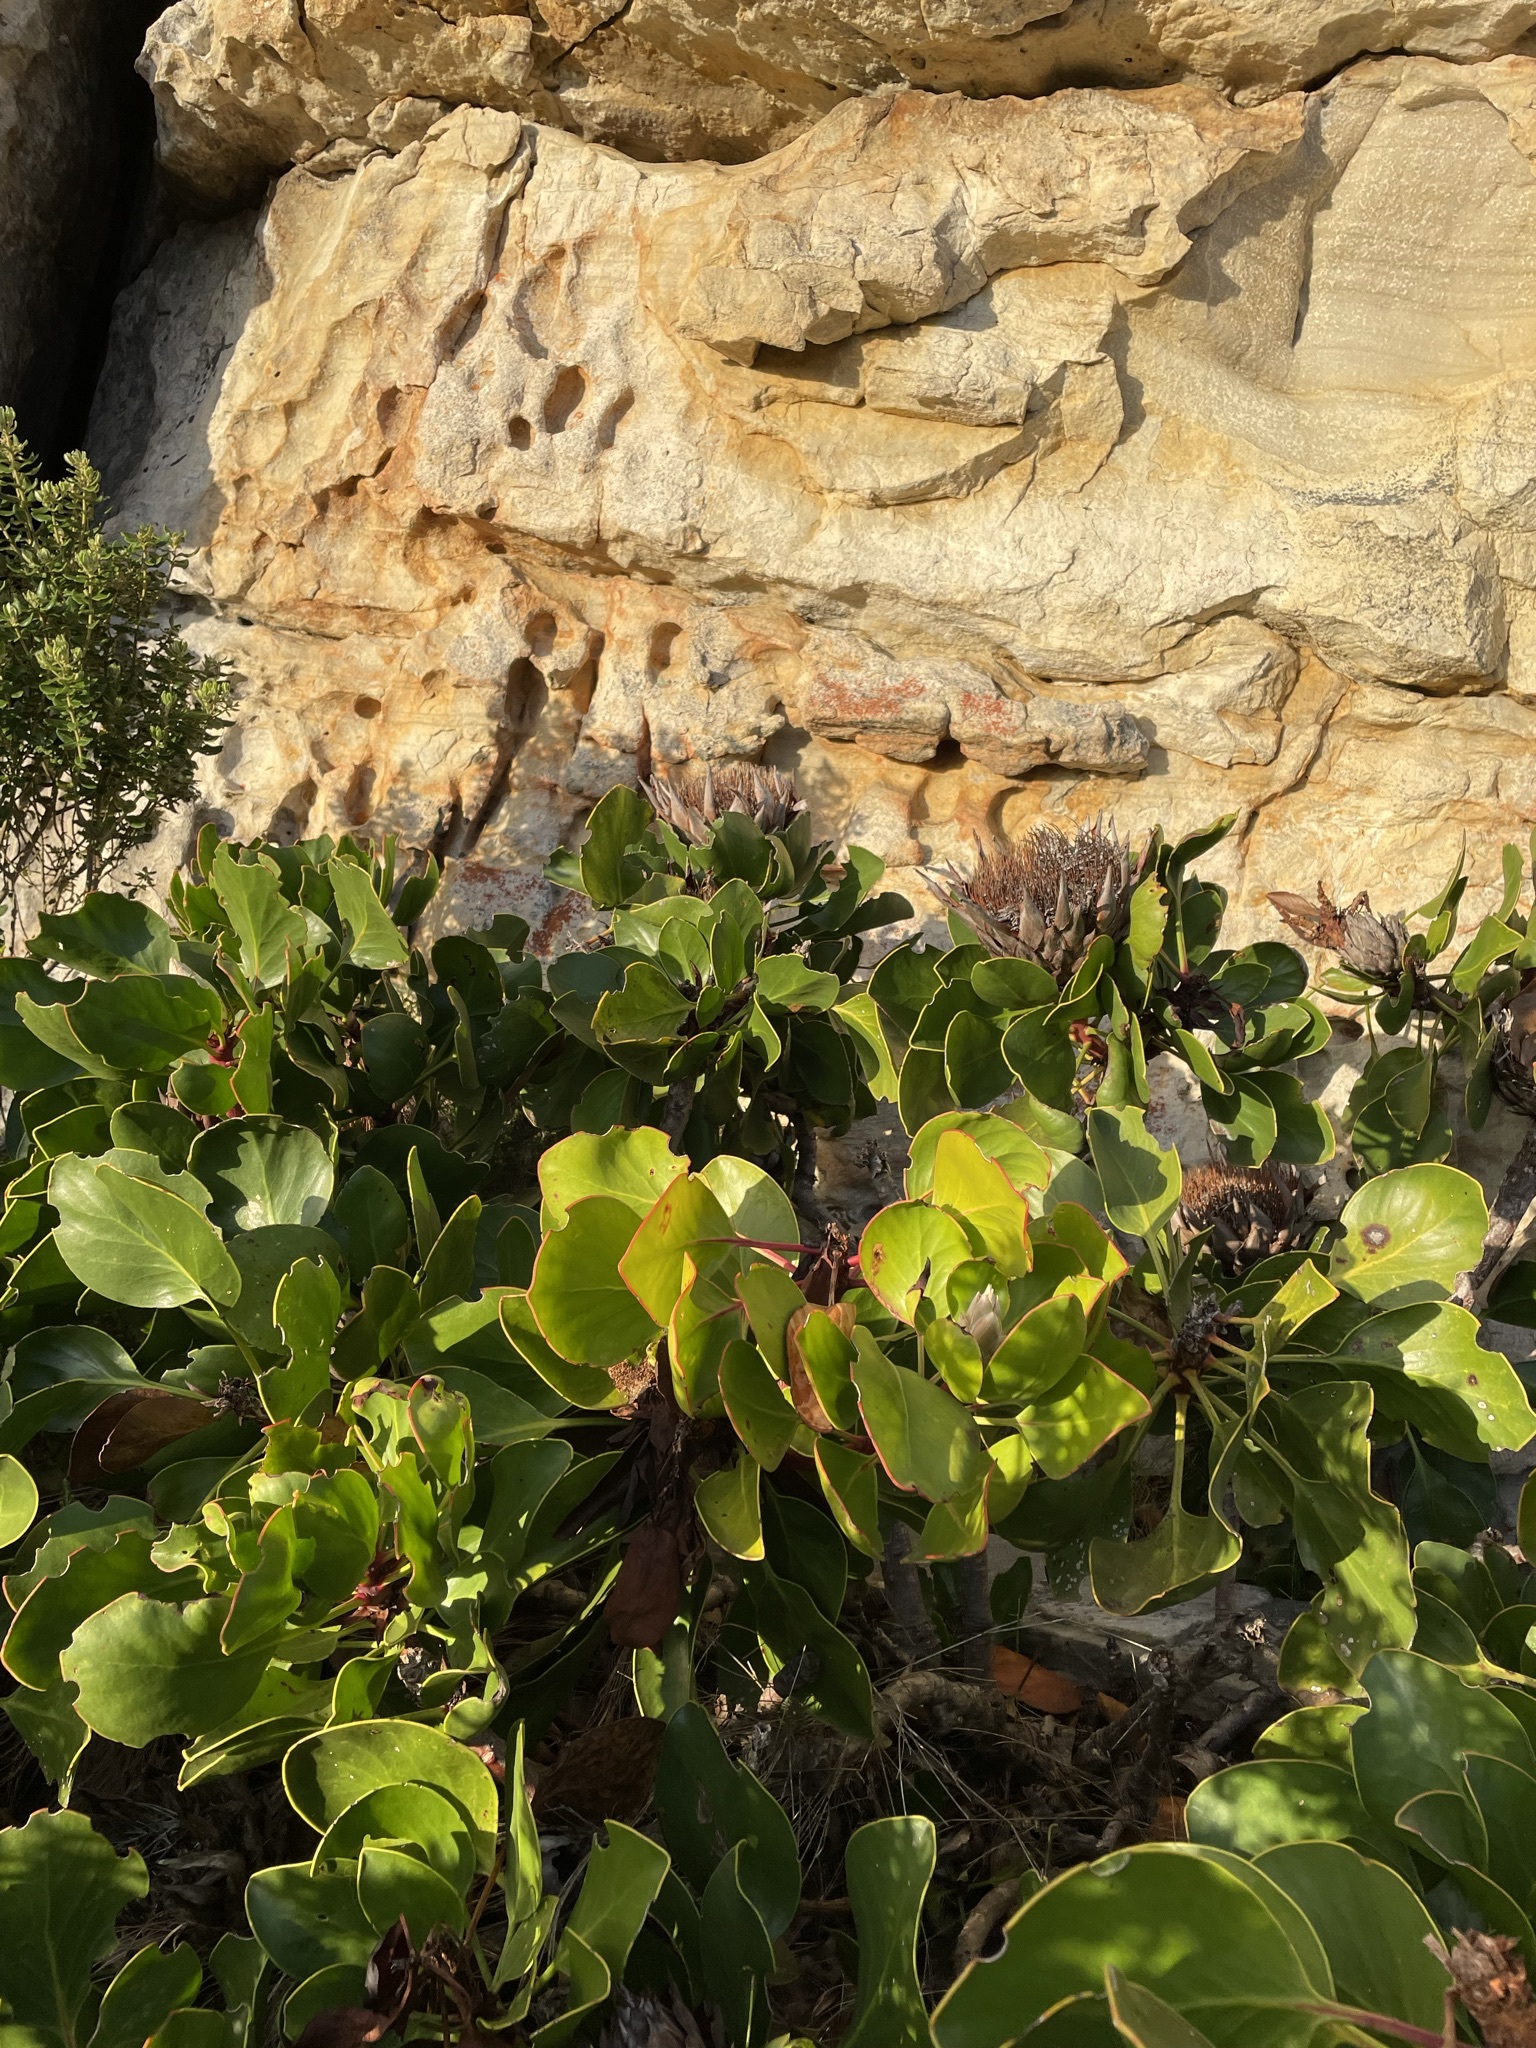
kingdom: Plantae
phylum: Tracheophyta
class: Magnoliopsida
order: Proteales
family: Proteaceae
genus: Protea
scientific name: Protea cynaroides
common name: King protea
